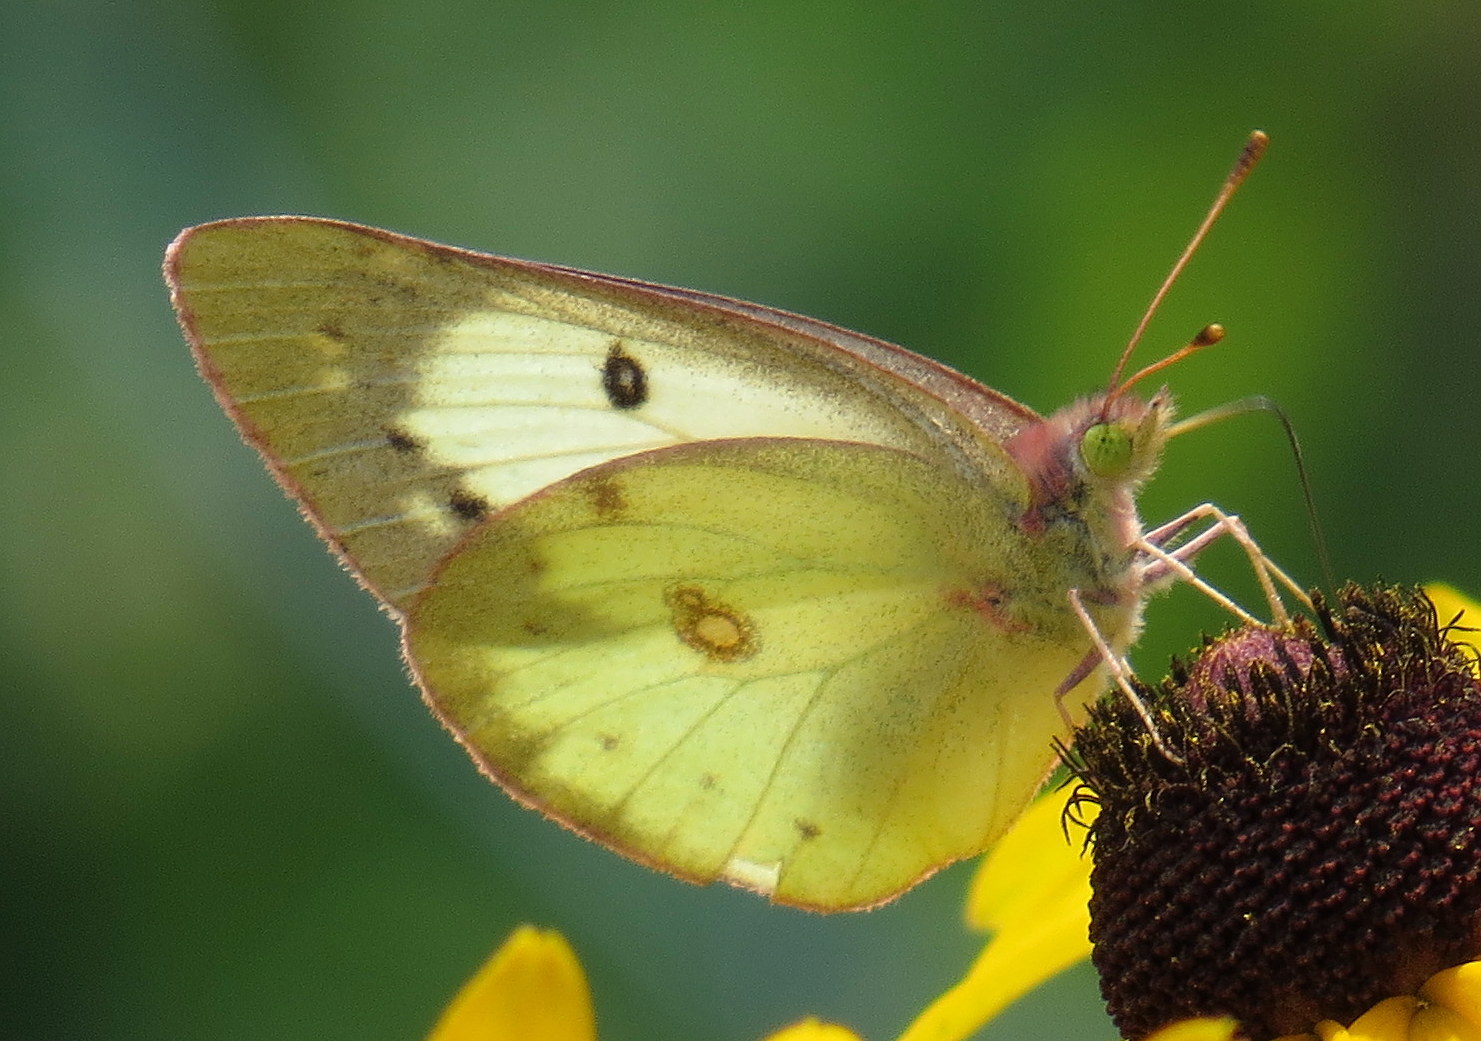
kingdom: Animalia
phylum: Arthropoda
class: Insecta
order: Lepidoptera
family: Pieridae
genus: Colias
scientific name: Colias philodice
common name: Clouded sulphur
